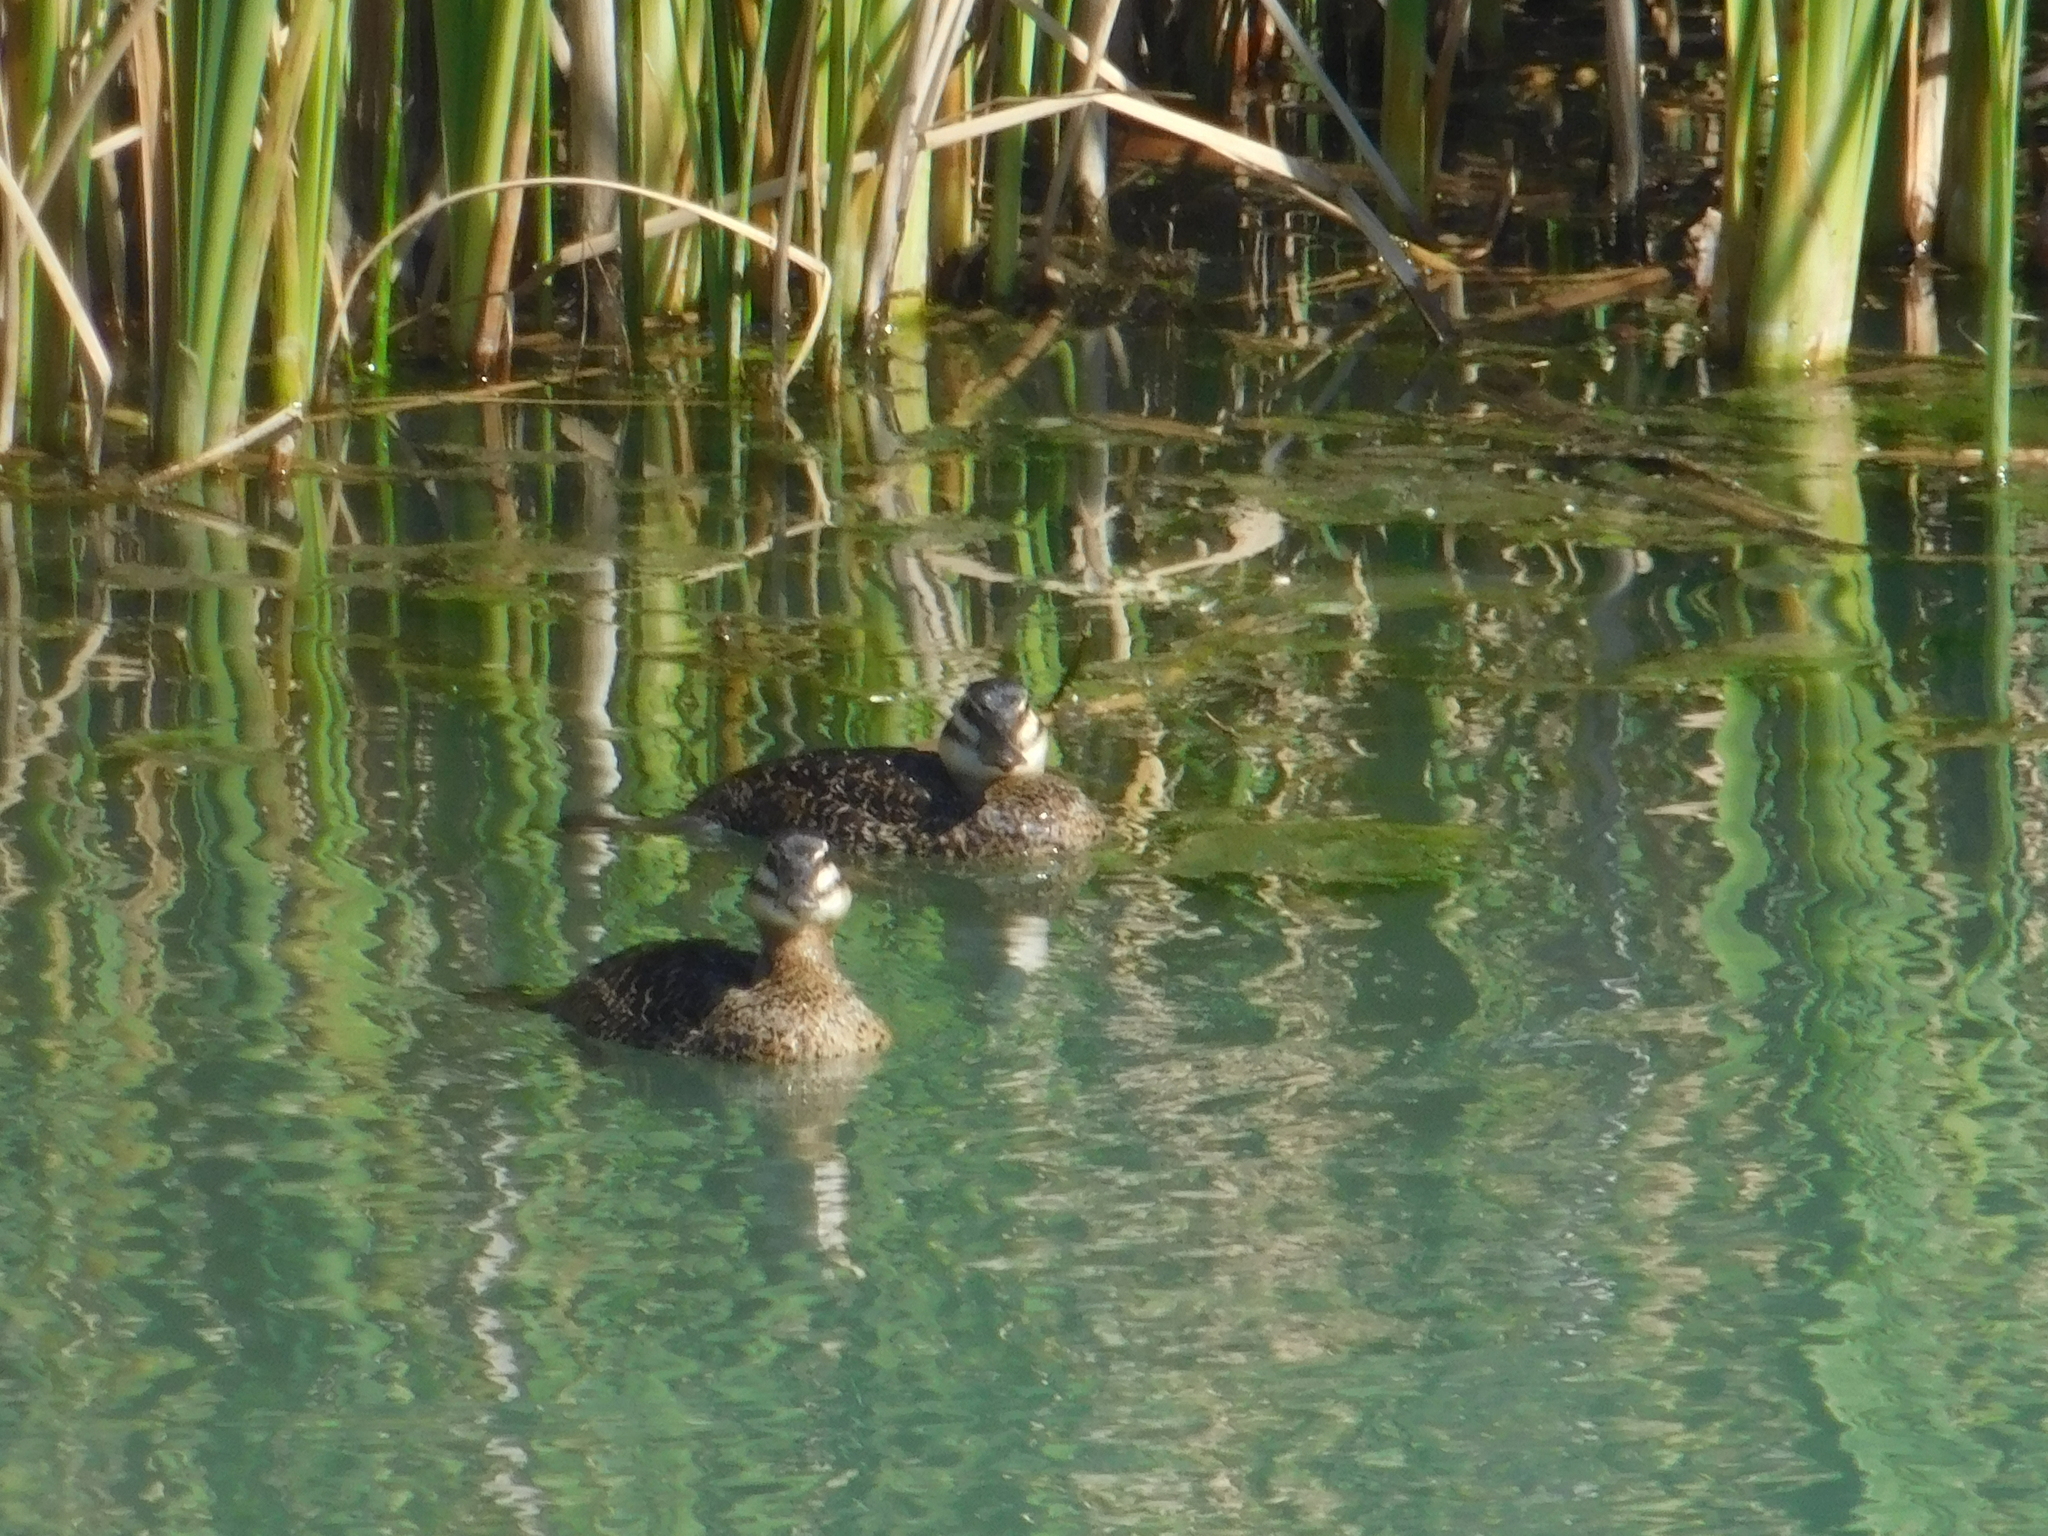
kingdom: Animalia
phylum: Chordata
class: Aves
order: Anseriformes
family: Anatidae
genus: Nomonyx
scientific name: Nomonyx dominicus
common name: Masked duck
